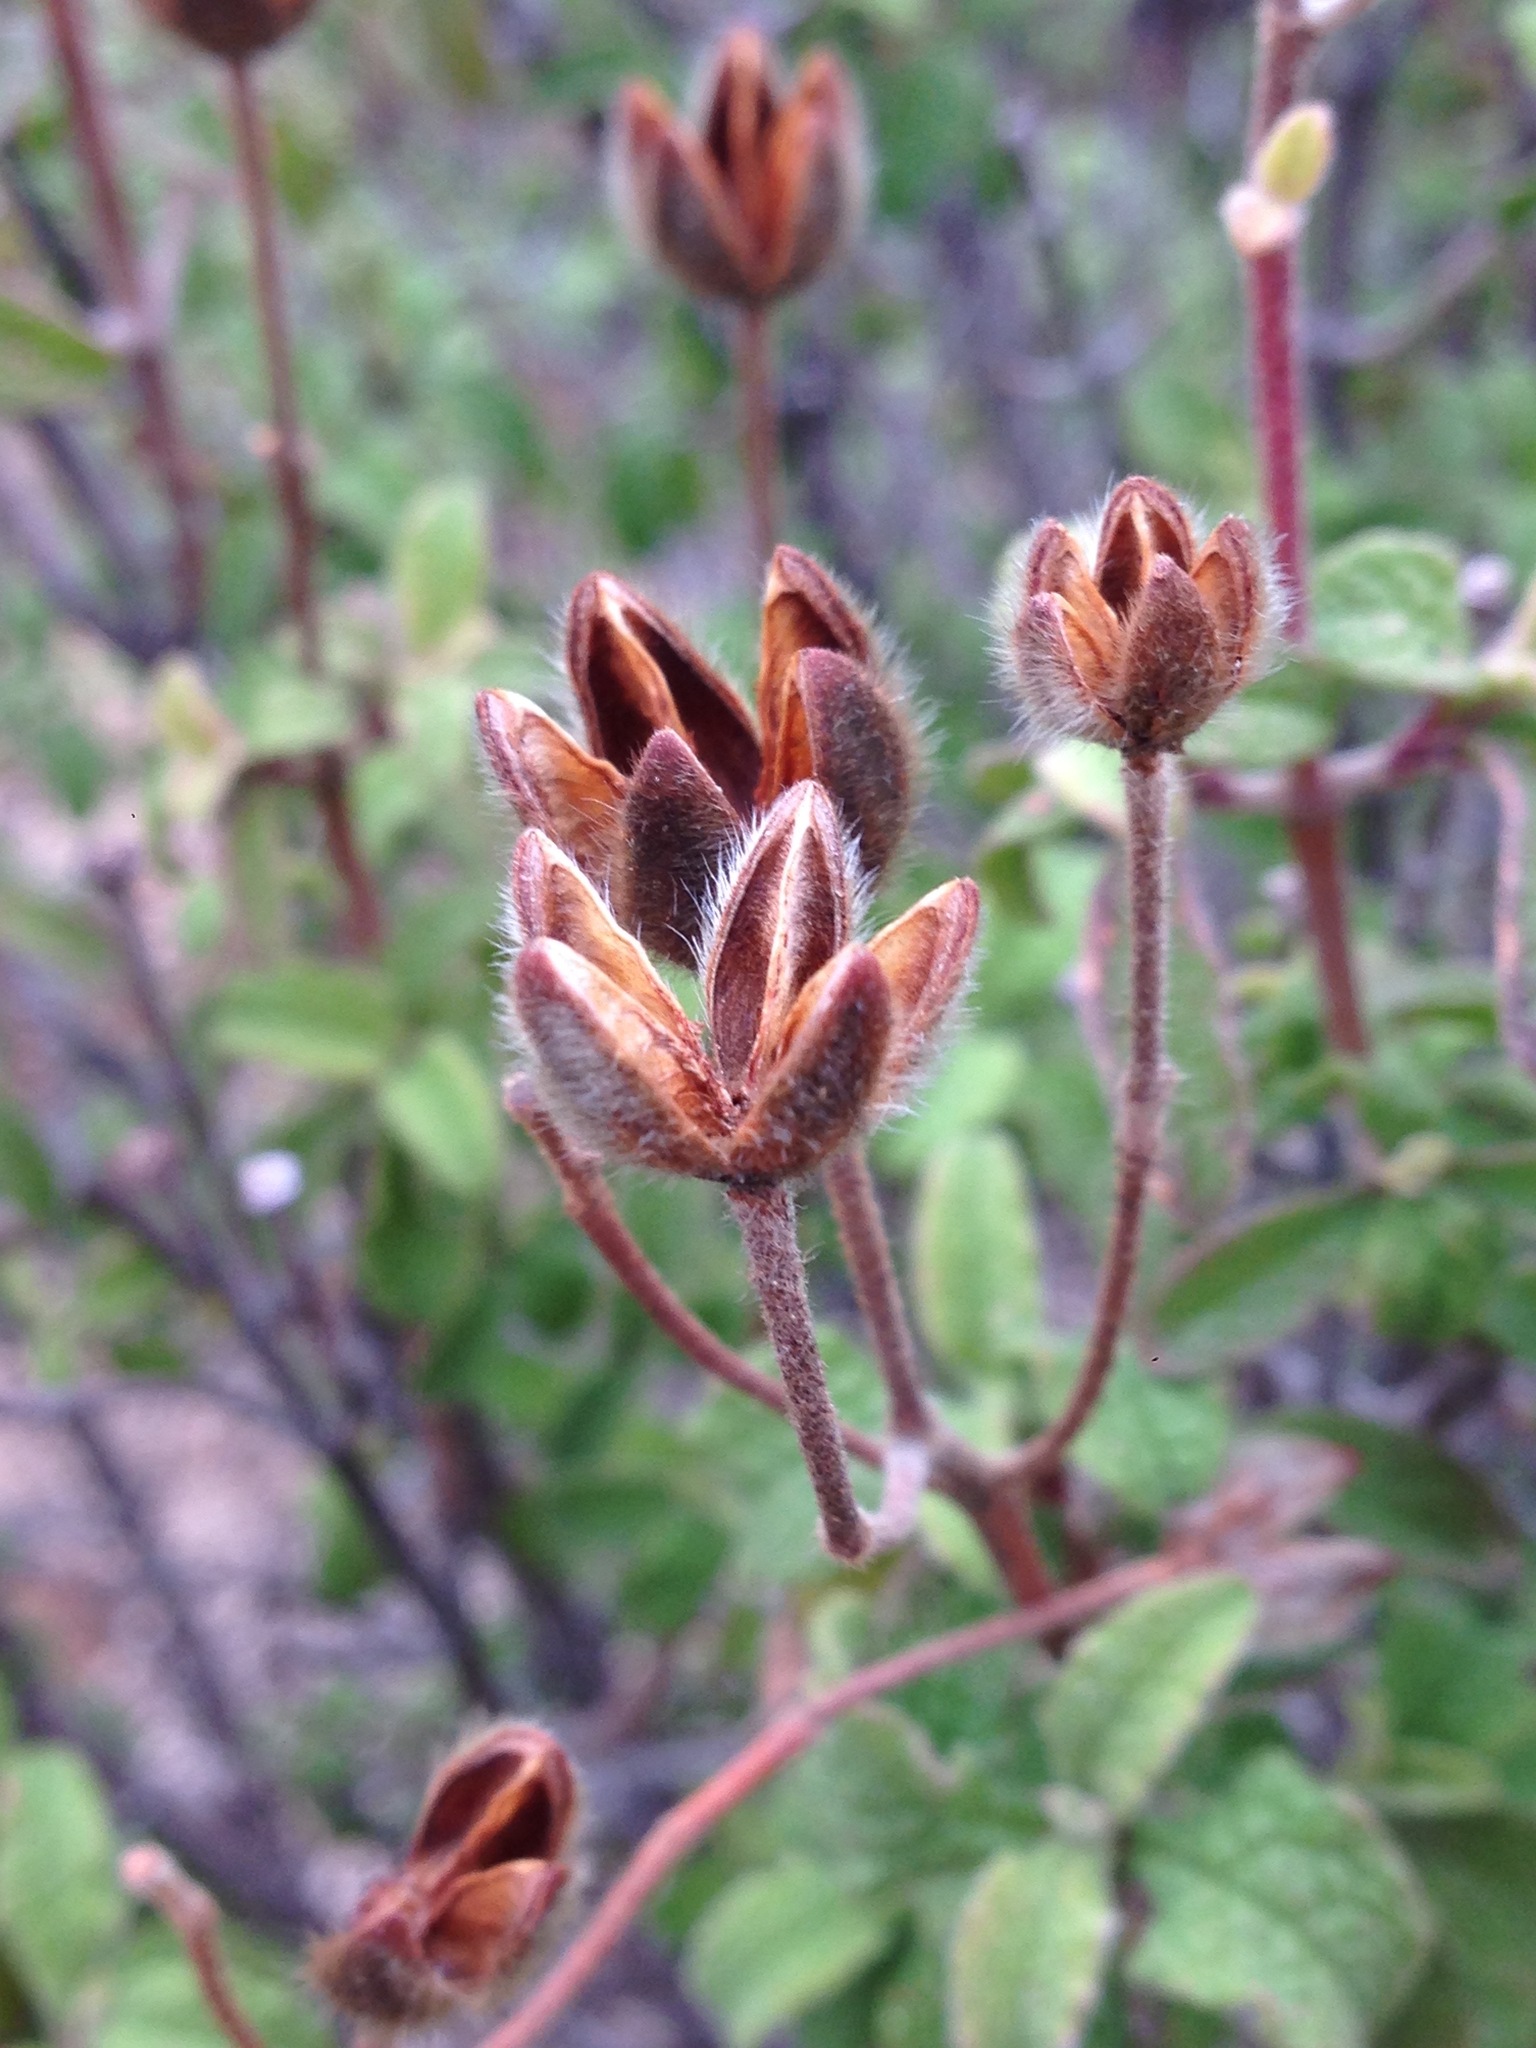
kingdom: Plantae
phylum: Tracheophyta
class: Magnoliopsida
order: Malvales
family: Cistaceae
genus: Cistus
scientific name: Cistus creticus
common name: Cretan rockrose
